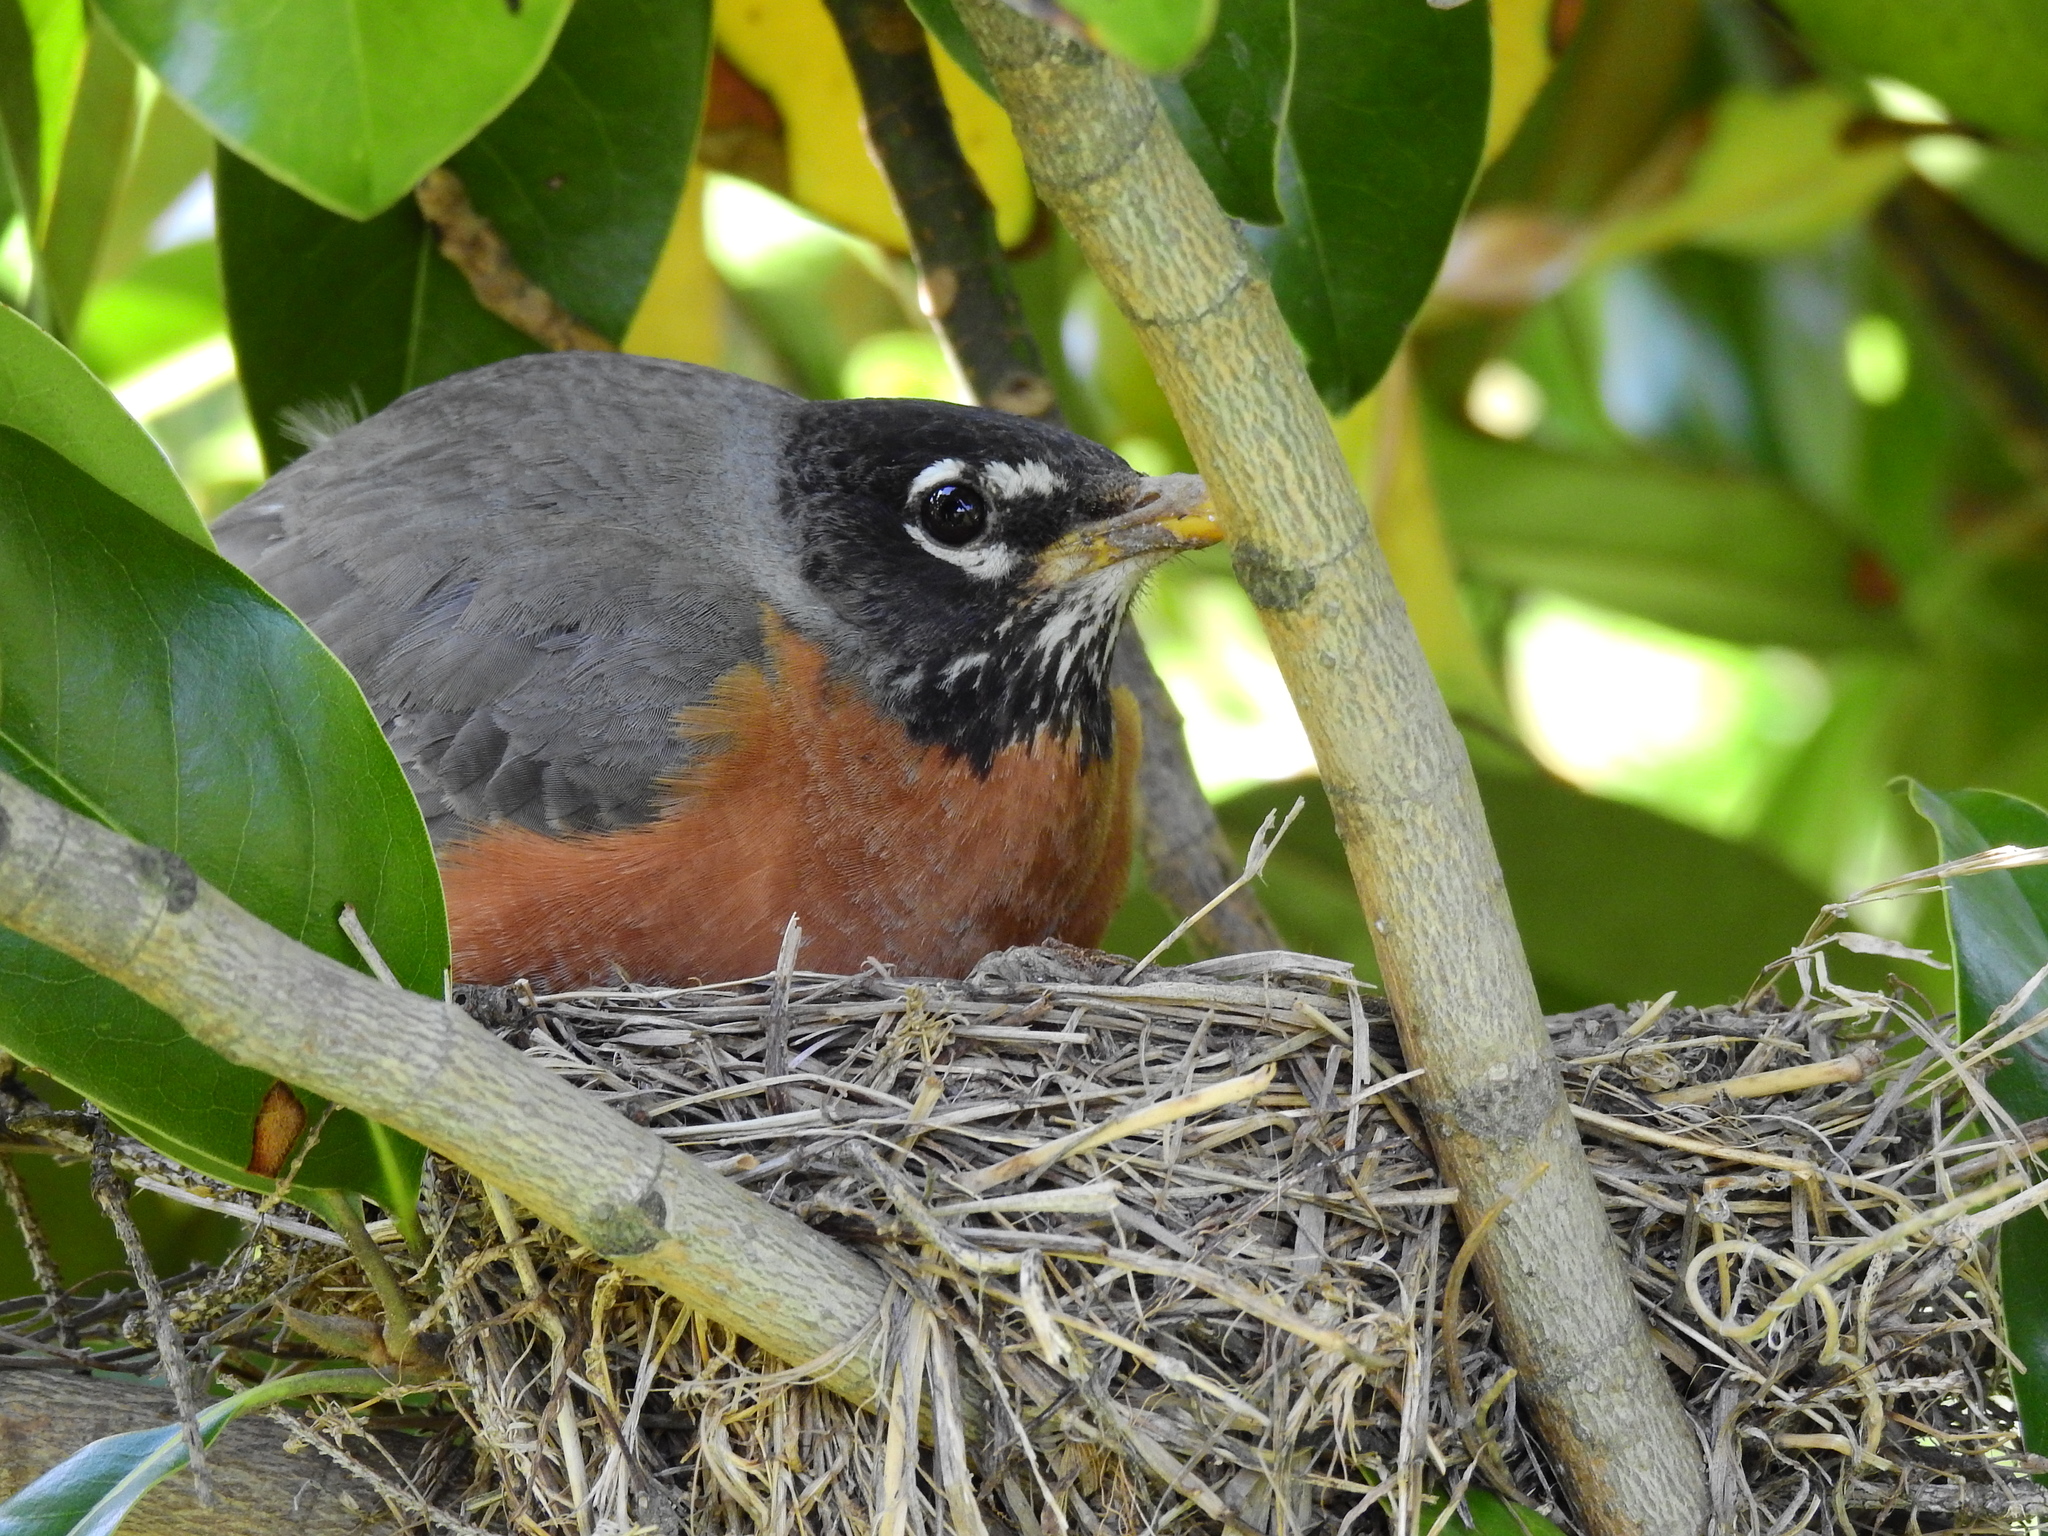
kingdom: Animalia
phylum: Chordata
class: Aves
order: Passeriformes
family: Turdidae
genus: Turdus
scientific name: Turdus migratorius
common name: American robin
